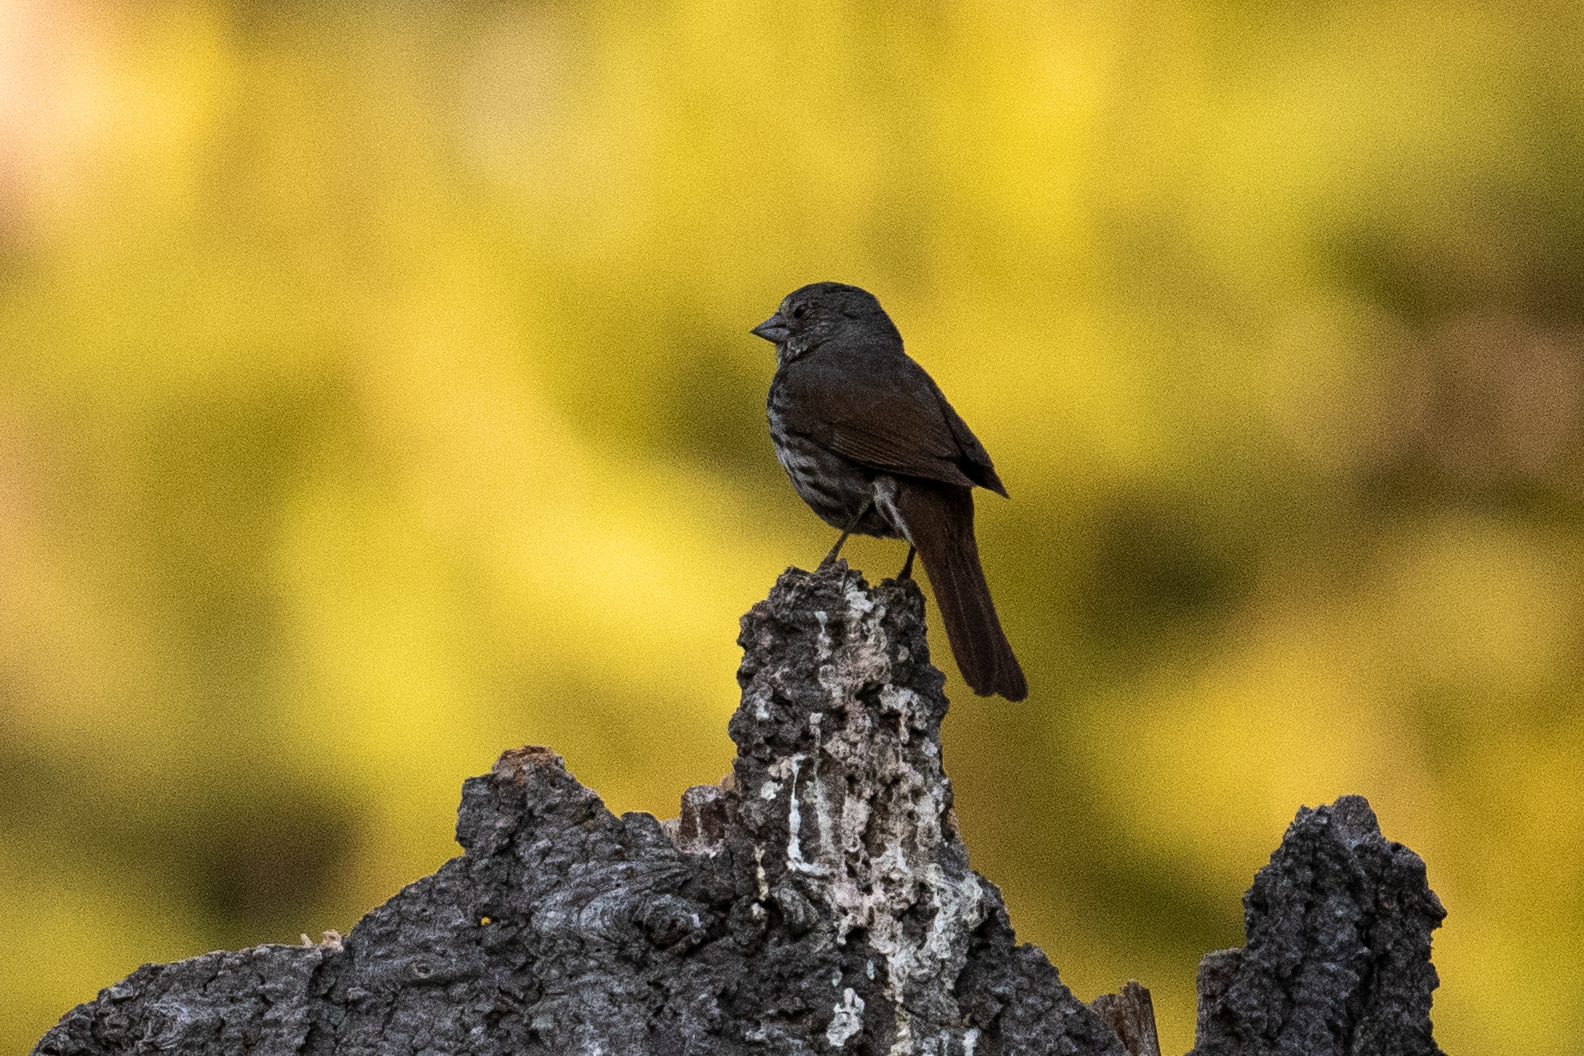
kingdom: Animalia
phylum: Chordata
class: Aves
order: Passeriformes
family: Passerellidae
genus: Passerella
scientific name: Passerella iliaca
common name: Fox sparrow
